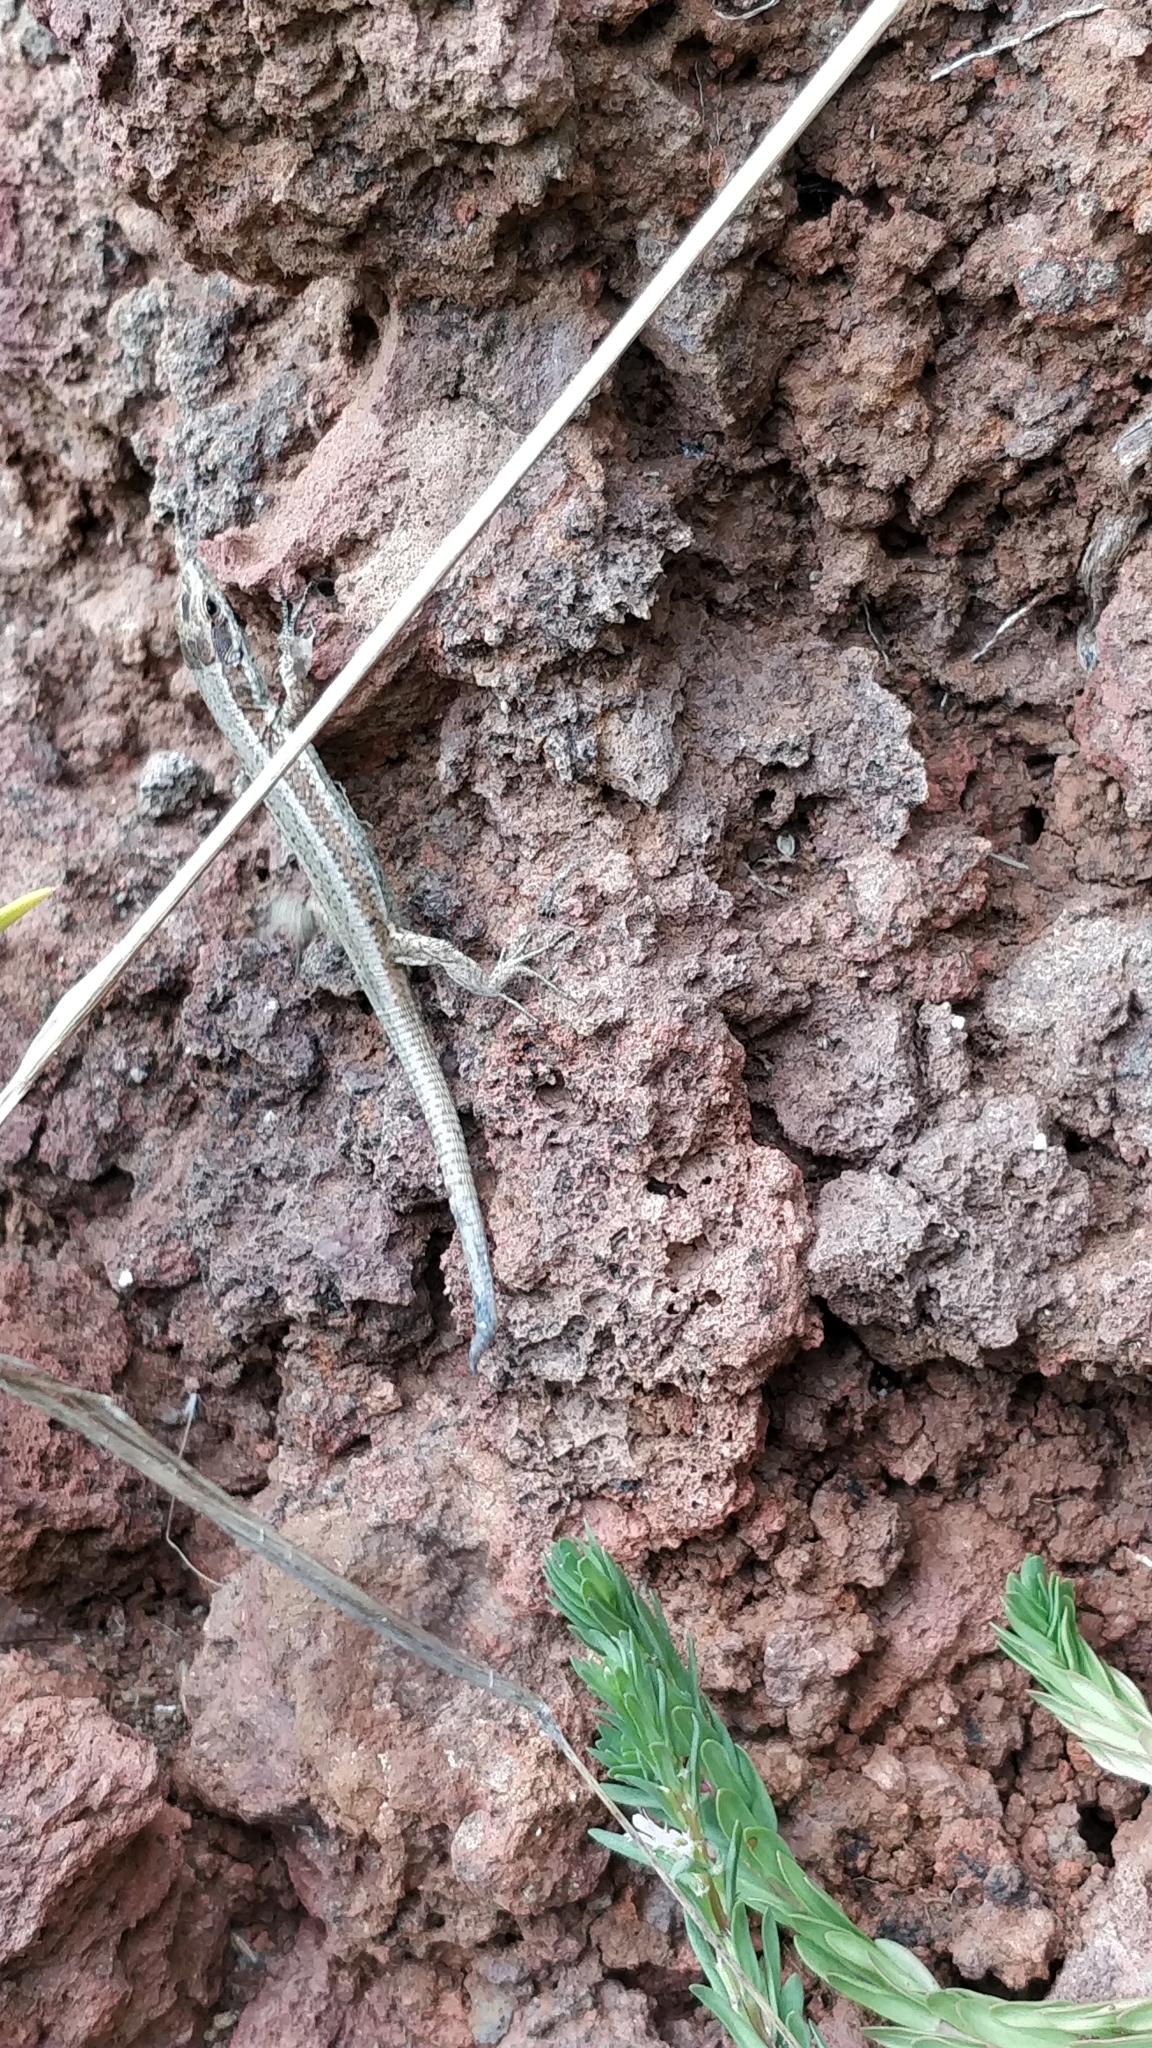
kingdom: Animalia
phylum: Chordata
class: Squamata
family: Lacertidae
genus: Teira
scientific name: Teira dugesii
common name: Madeira lizard
